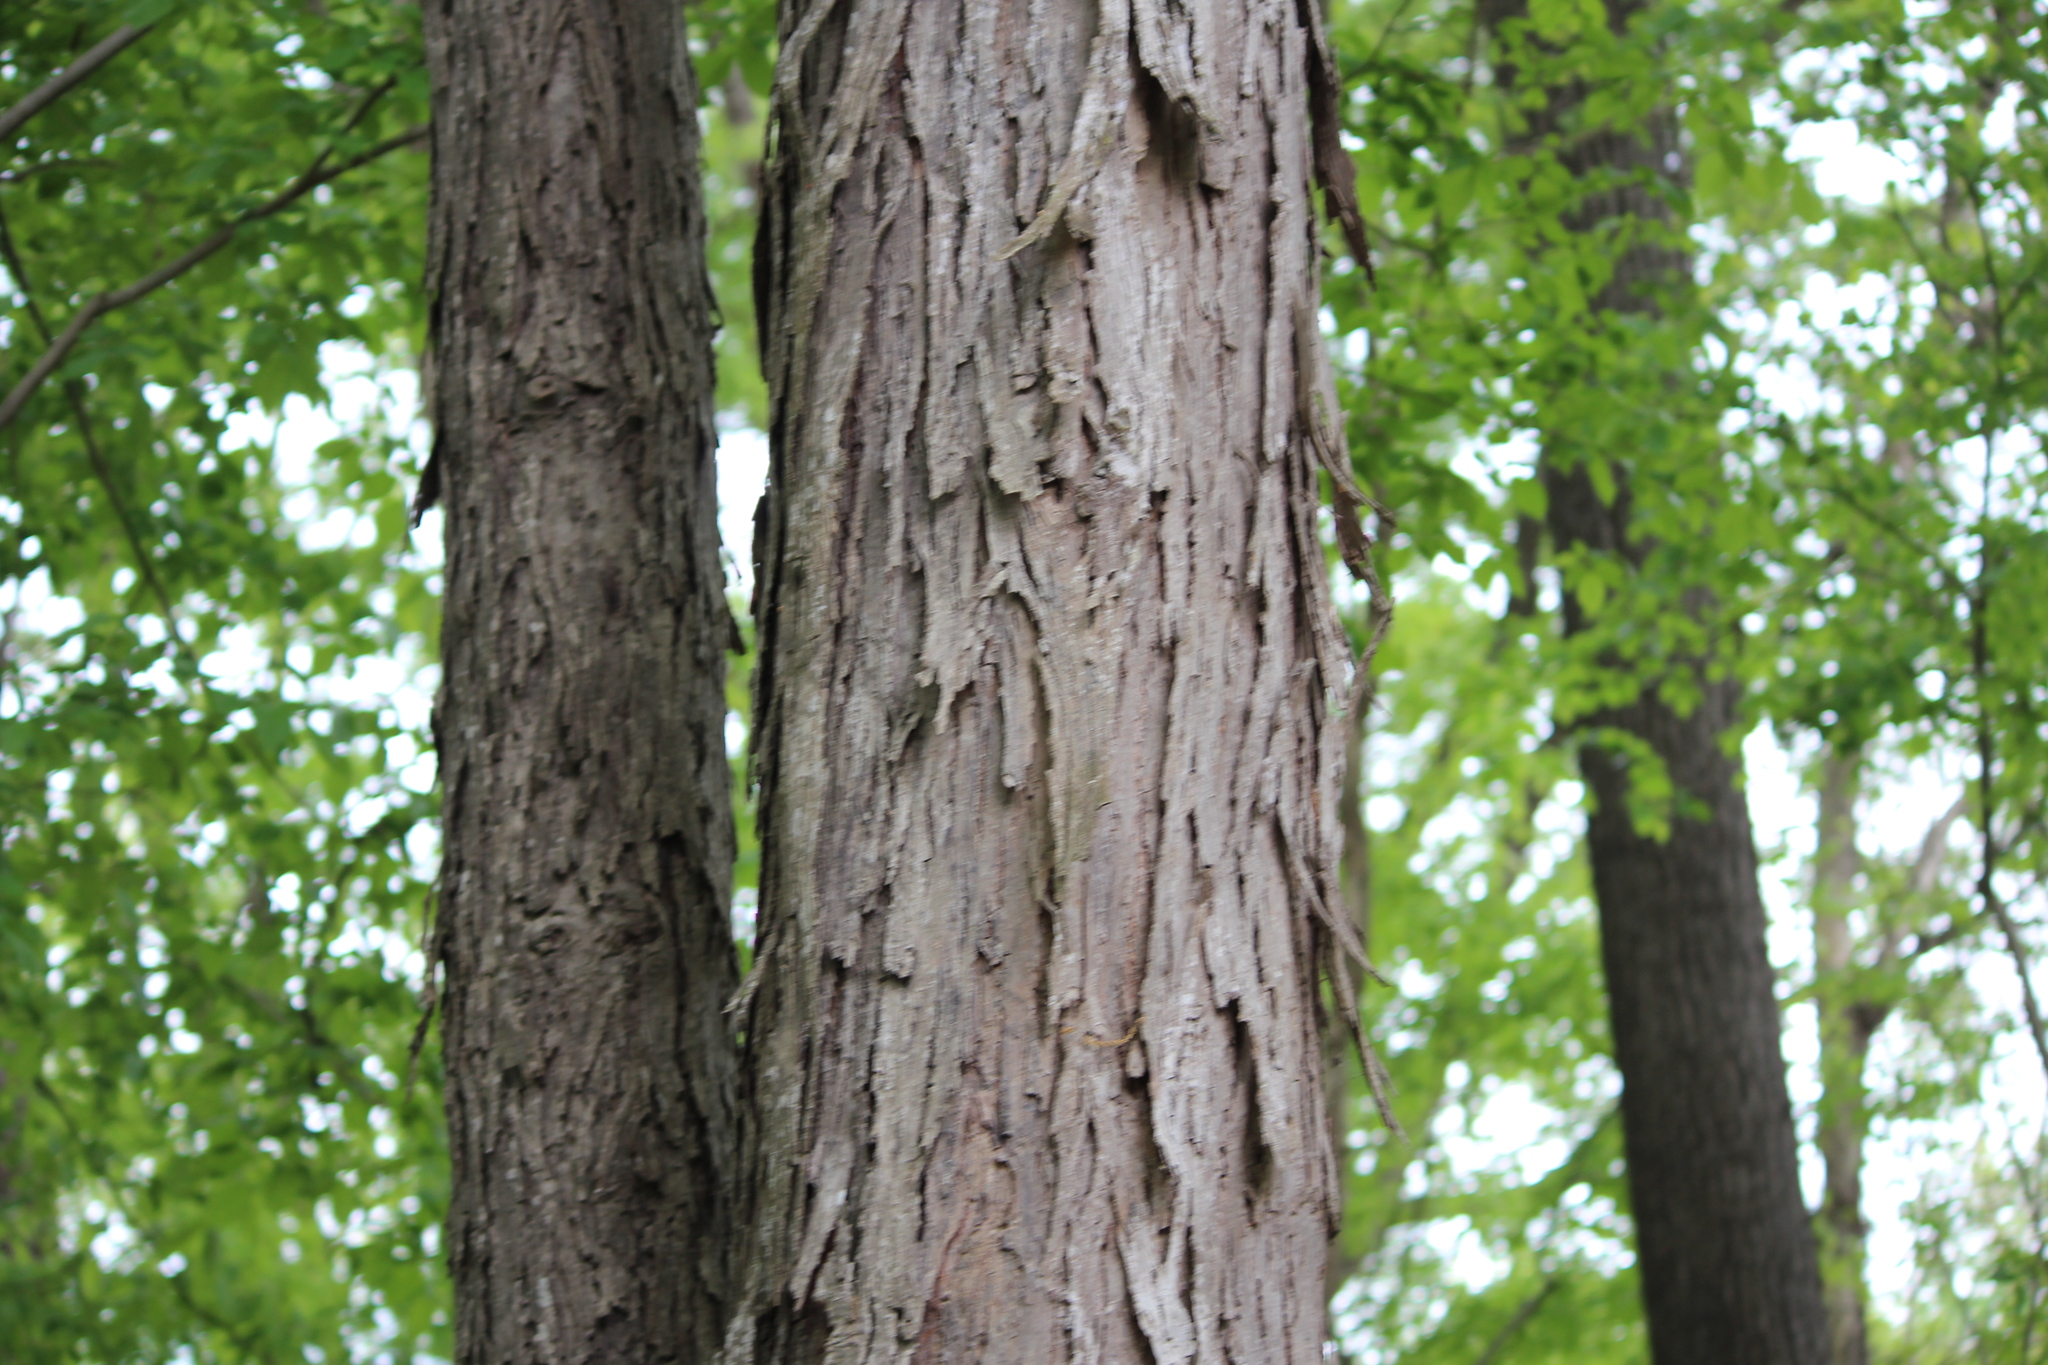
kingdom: Plantae
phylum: Tracheophyta
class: Magnoliopsida
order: Fagales
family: Juglandaceae
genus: Carya
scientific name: Carya ovata
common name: Shagbark hickory
